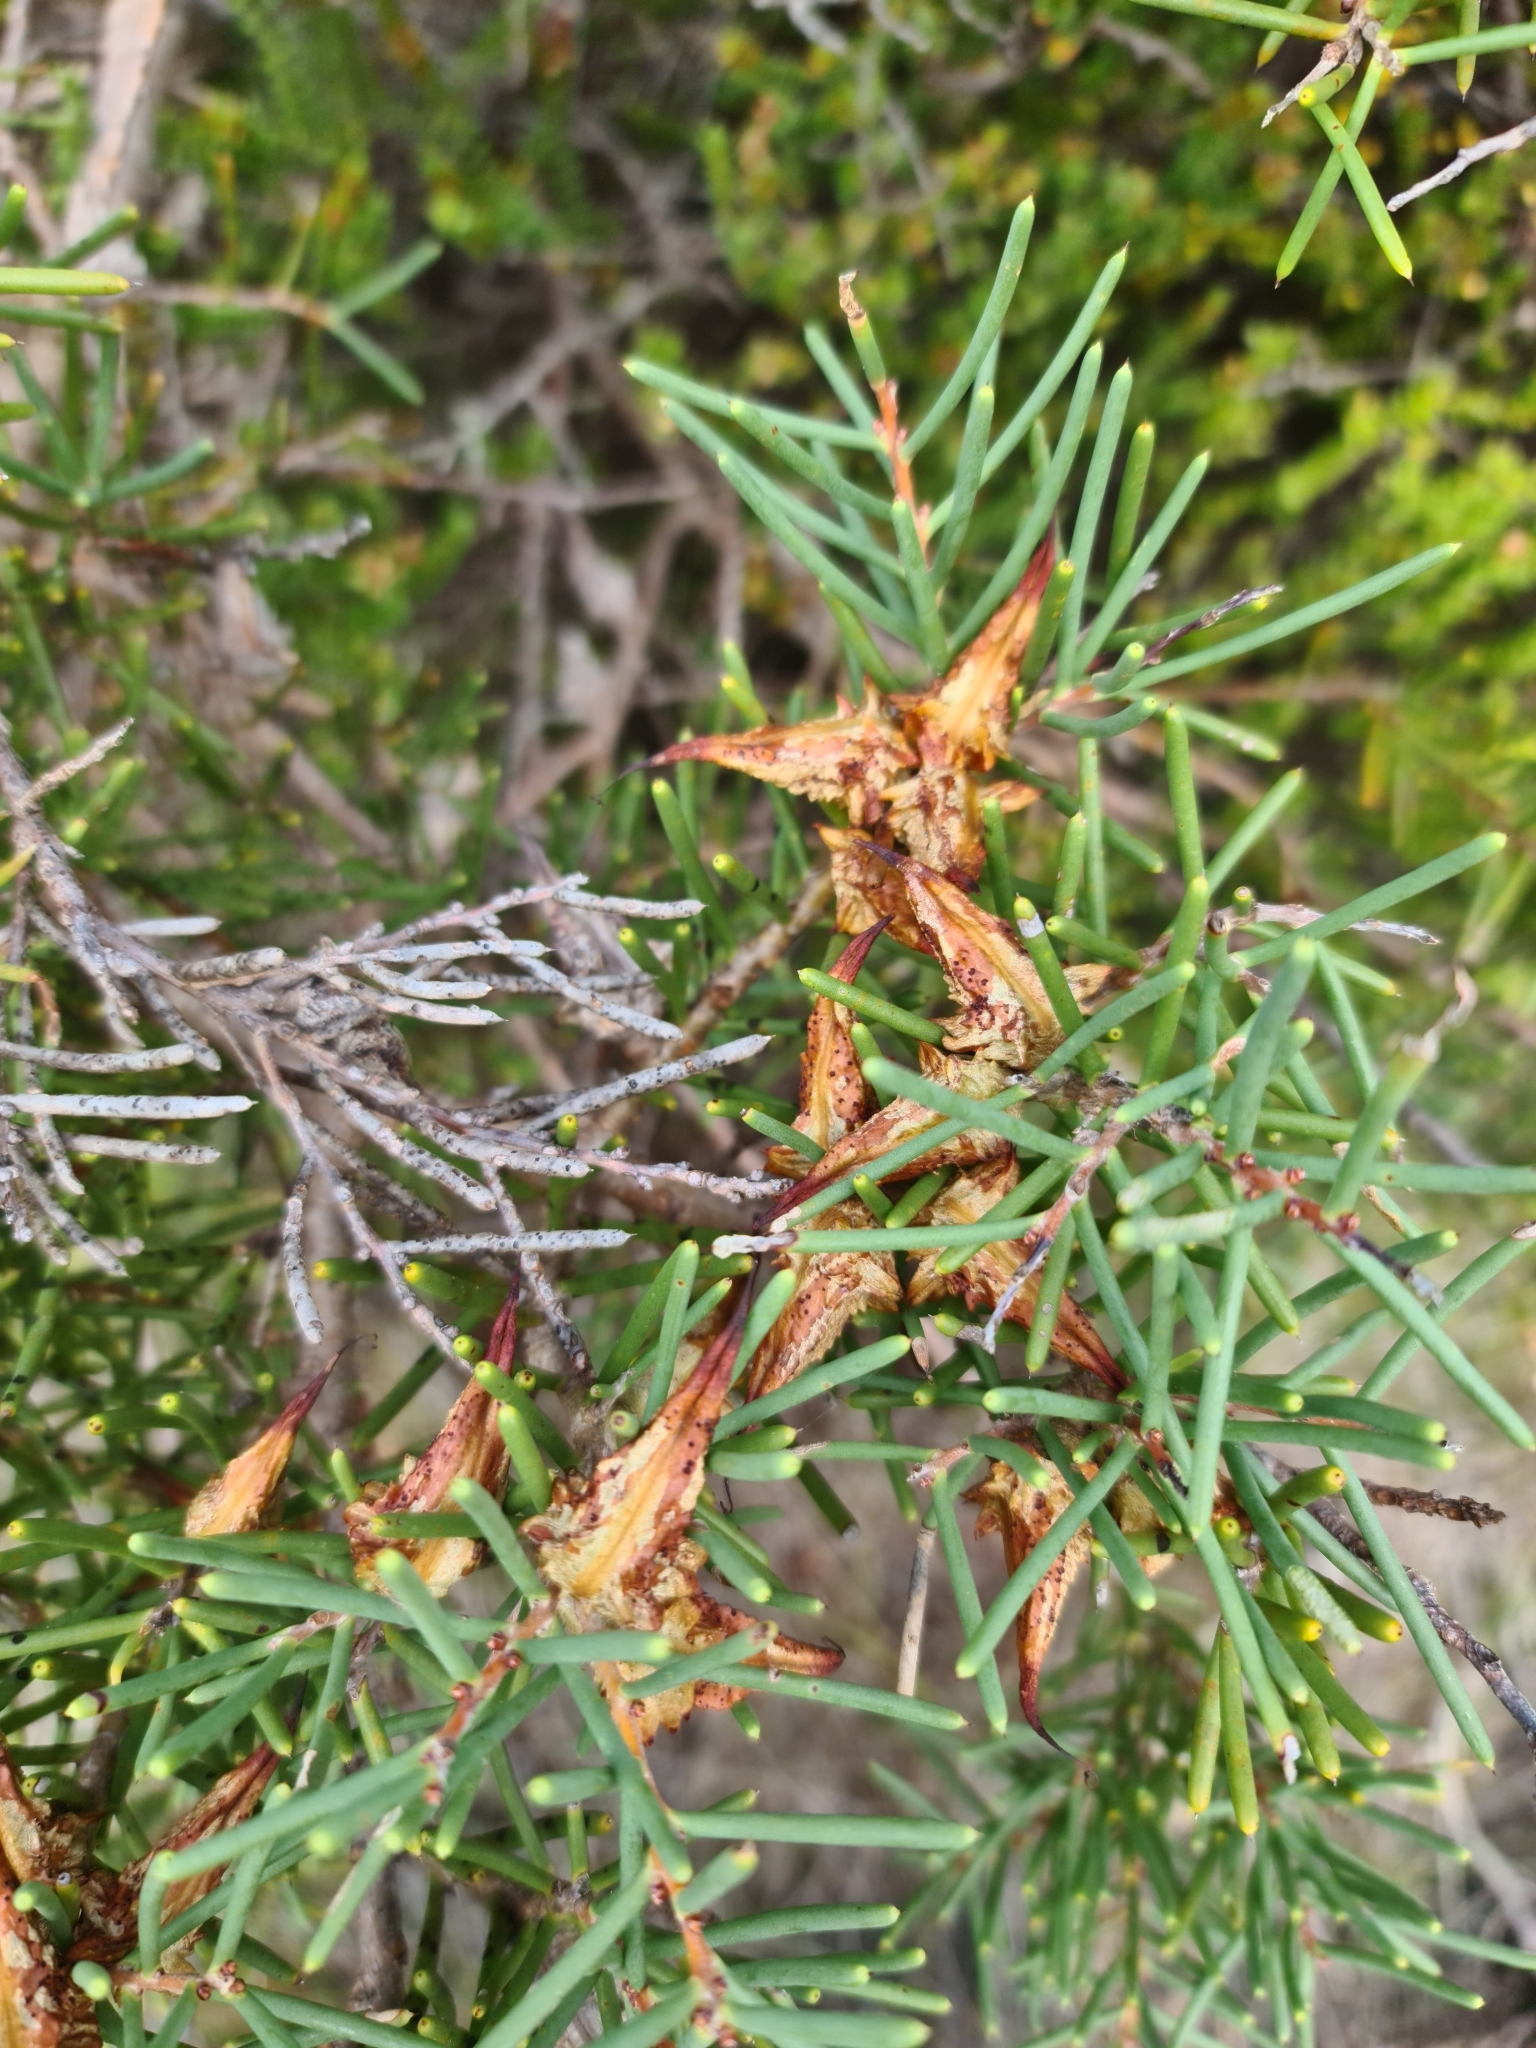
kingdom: Plantae
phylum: Tracheophyta
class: Magnoliopsida
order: Proteales
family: Proteaceae
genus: Hakea
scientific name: Hakea teretifolia
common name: Dagger hakea
